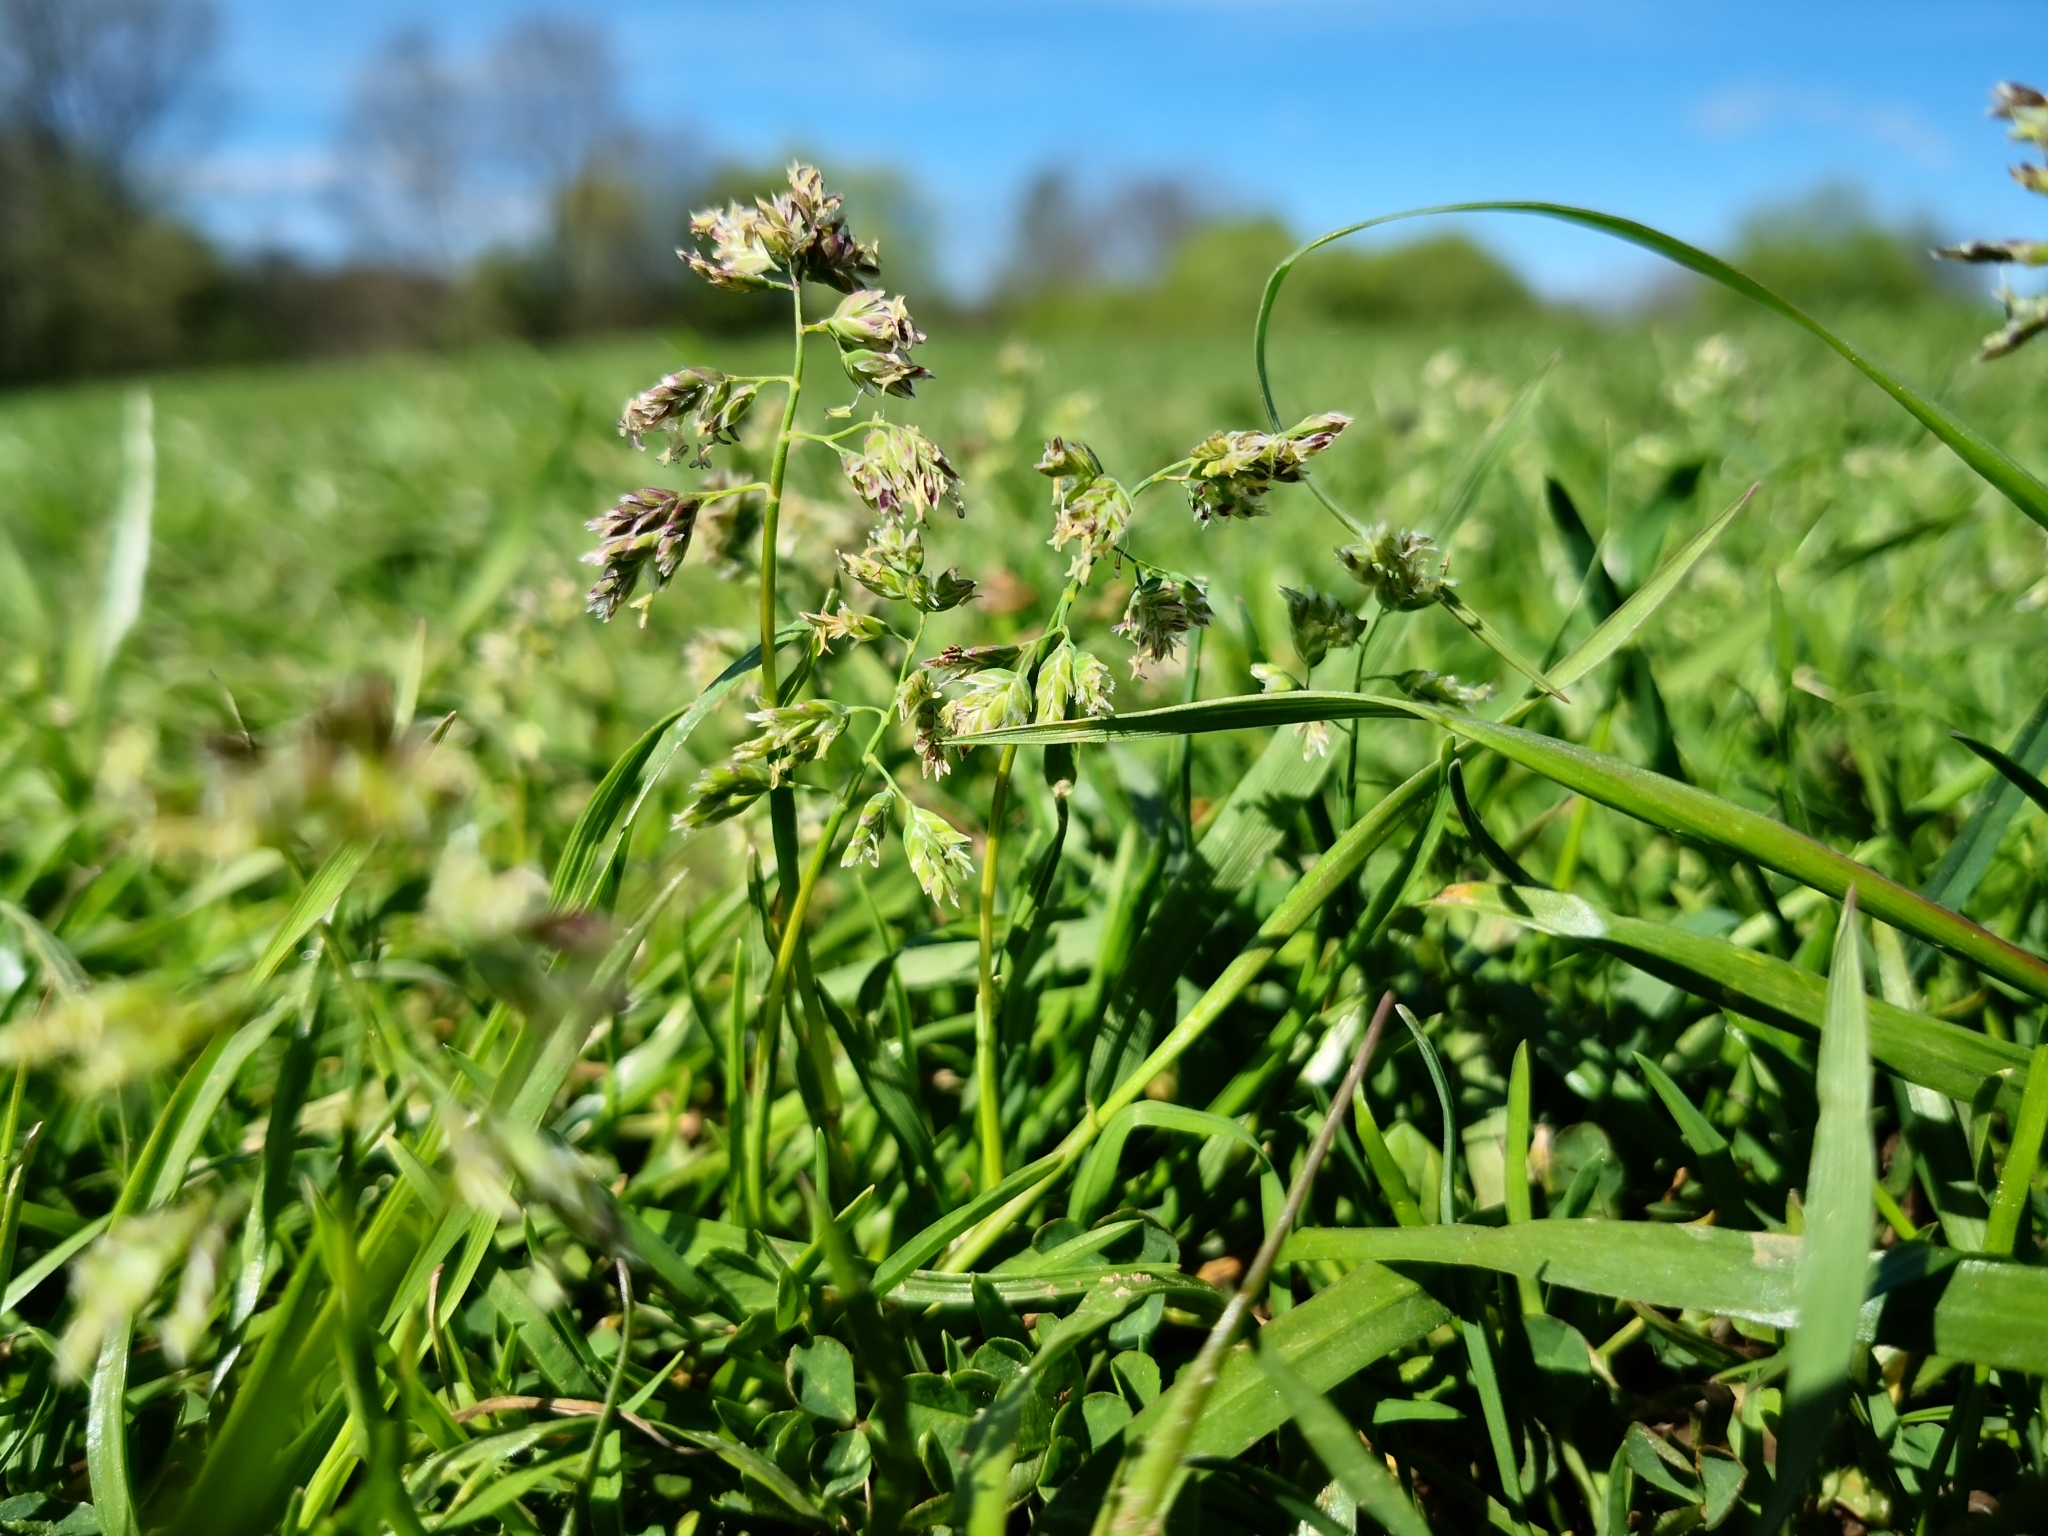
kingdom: Plantae
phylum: Tracheophyta
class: Liliopsida
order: Poales
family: Poaceae
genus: Poa
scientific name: Poa annua
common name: Annual bluegrass
